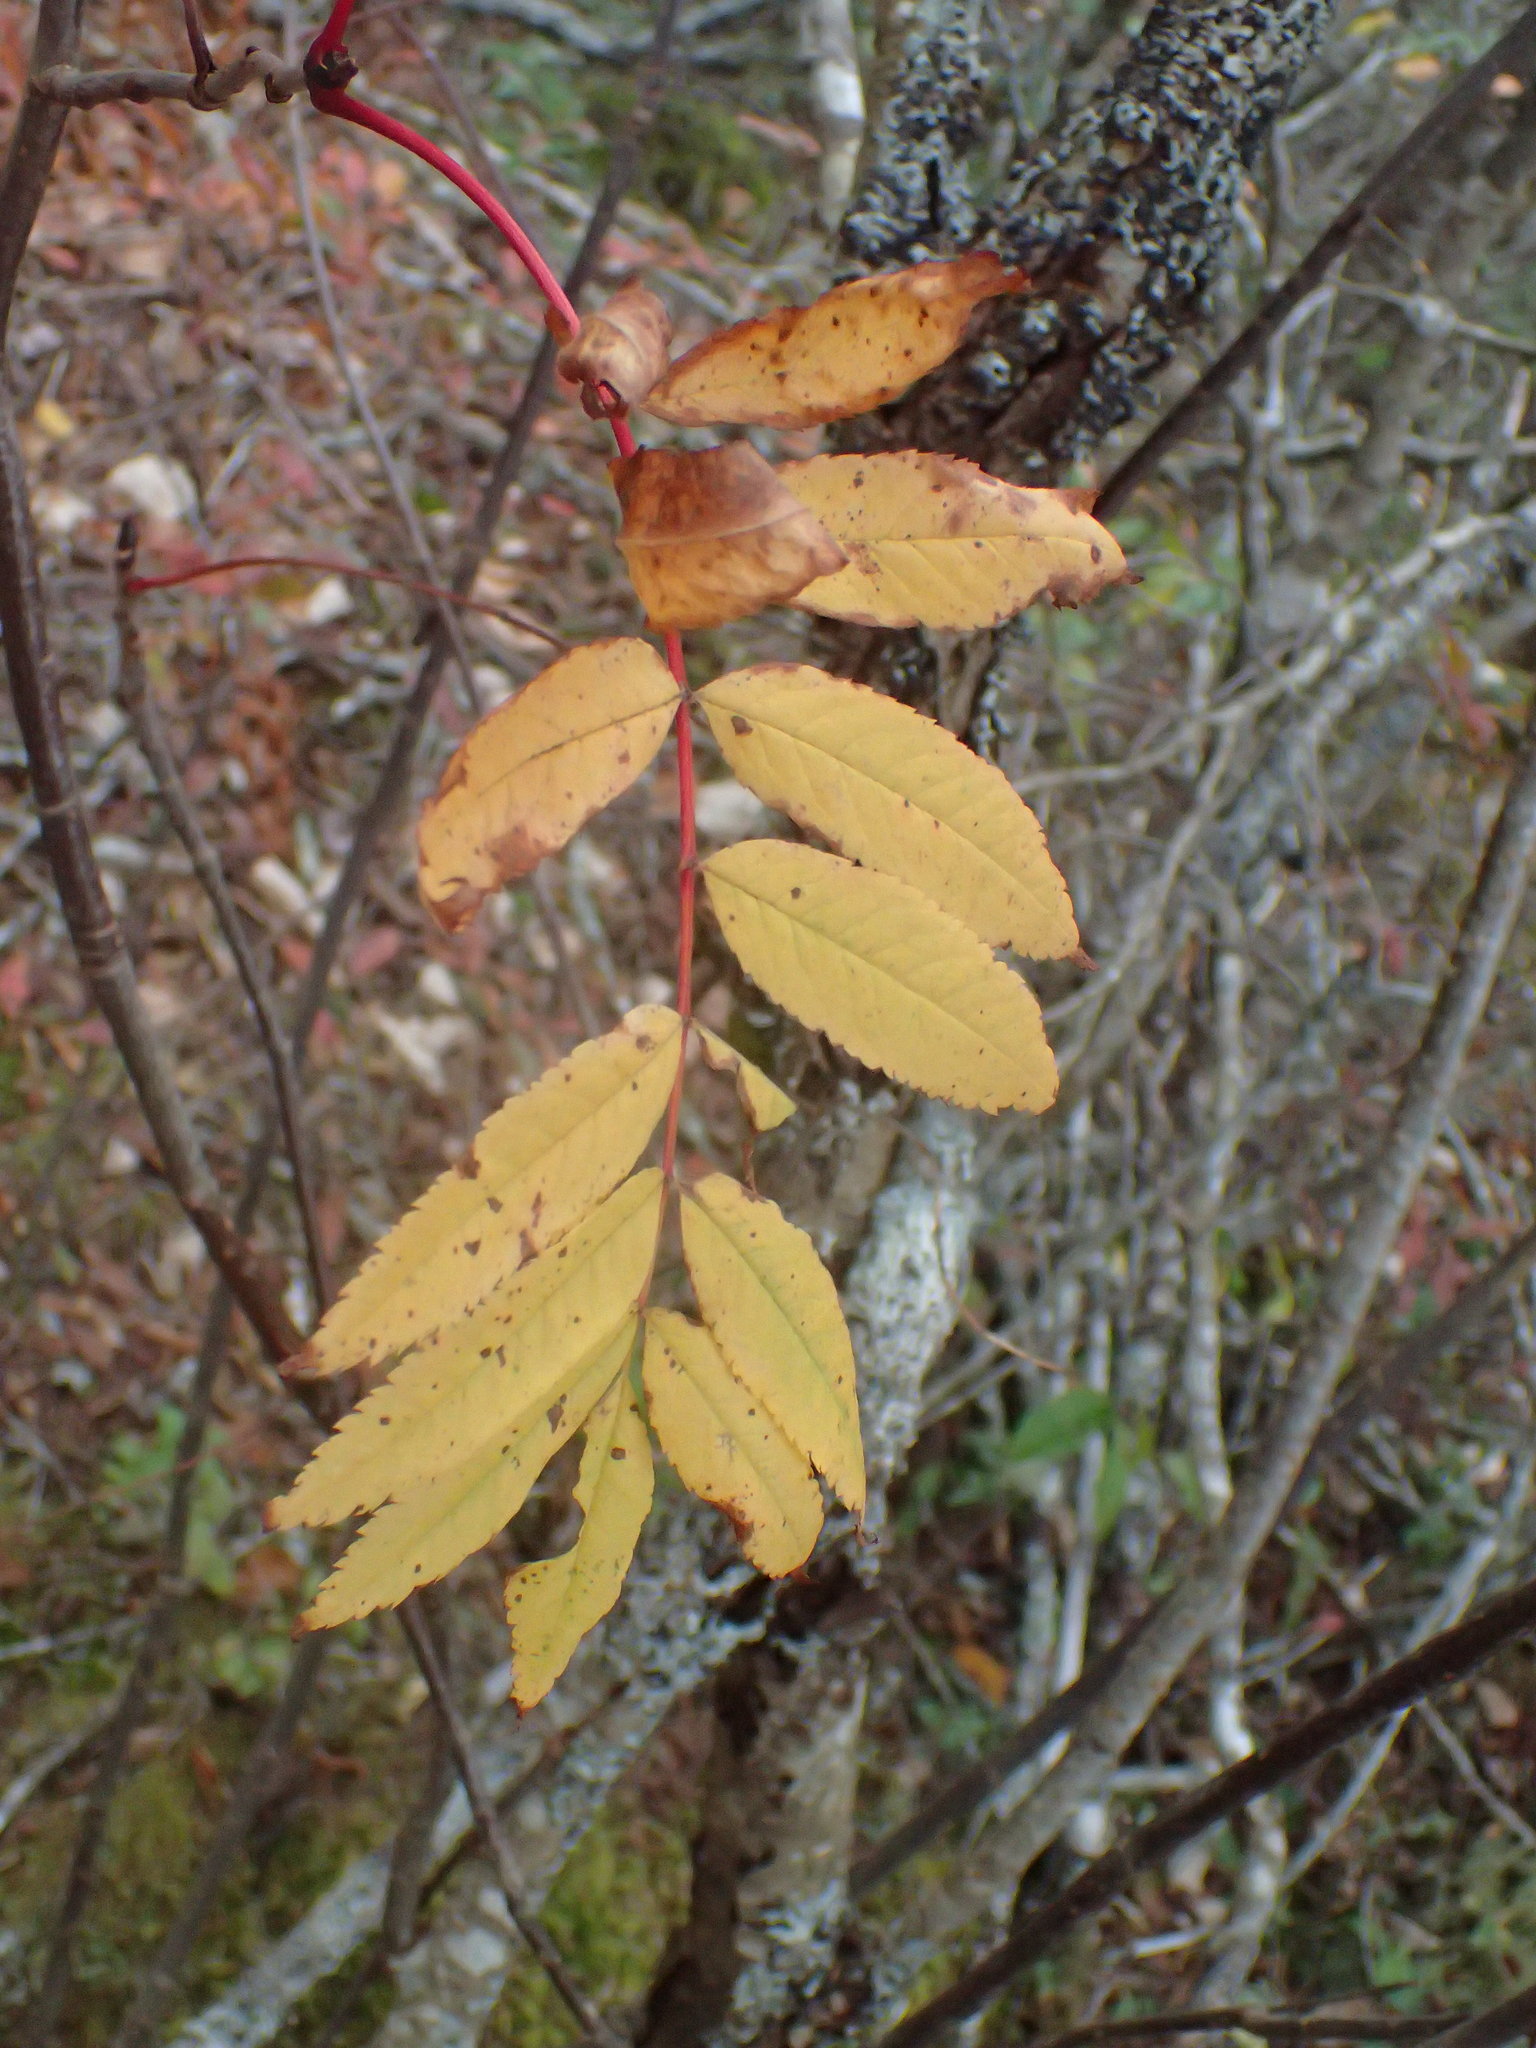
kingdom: Plantae
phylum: Tracheophyta
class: Magnoliopsida
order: Rosales
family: Rosaceae
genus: Sorbus
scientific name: Sorbus americana
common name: American mountain-ash
